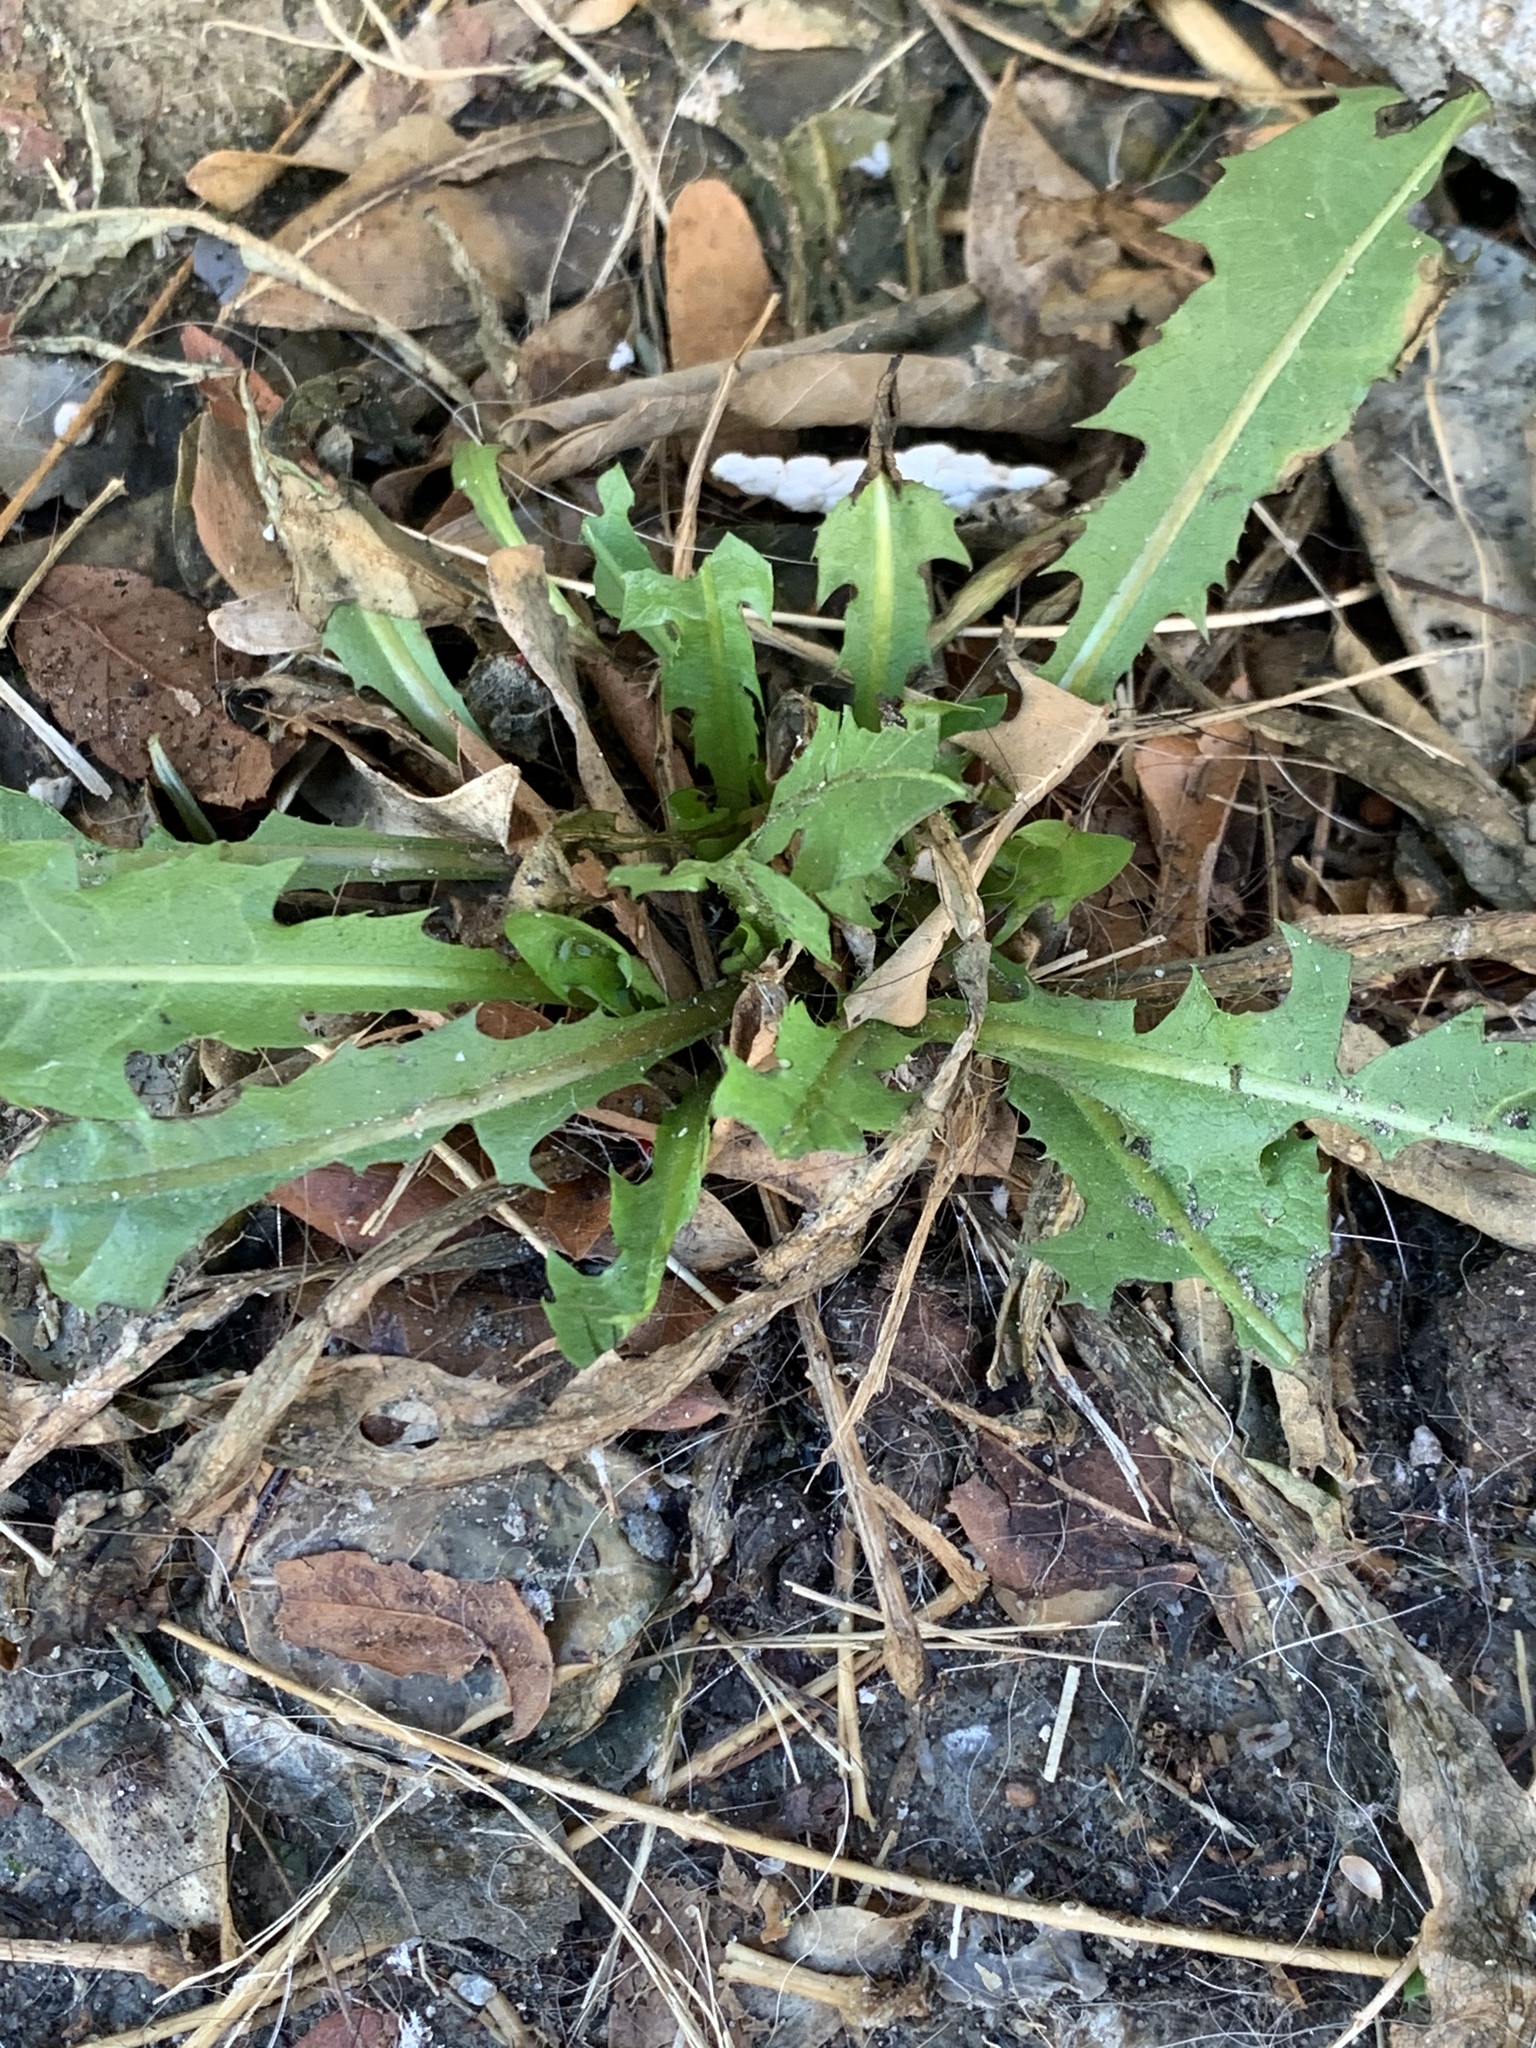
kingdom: Plantae
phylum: Tracheophyta
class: Magnoliopsida
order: Asterales
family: Asteraceae
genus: Taraxacum
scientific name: Taraxacum
